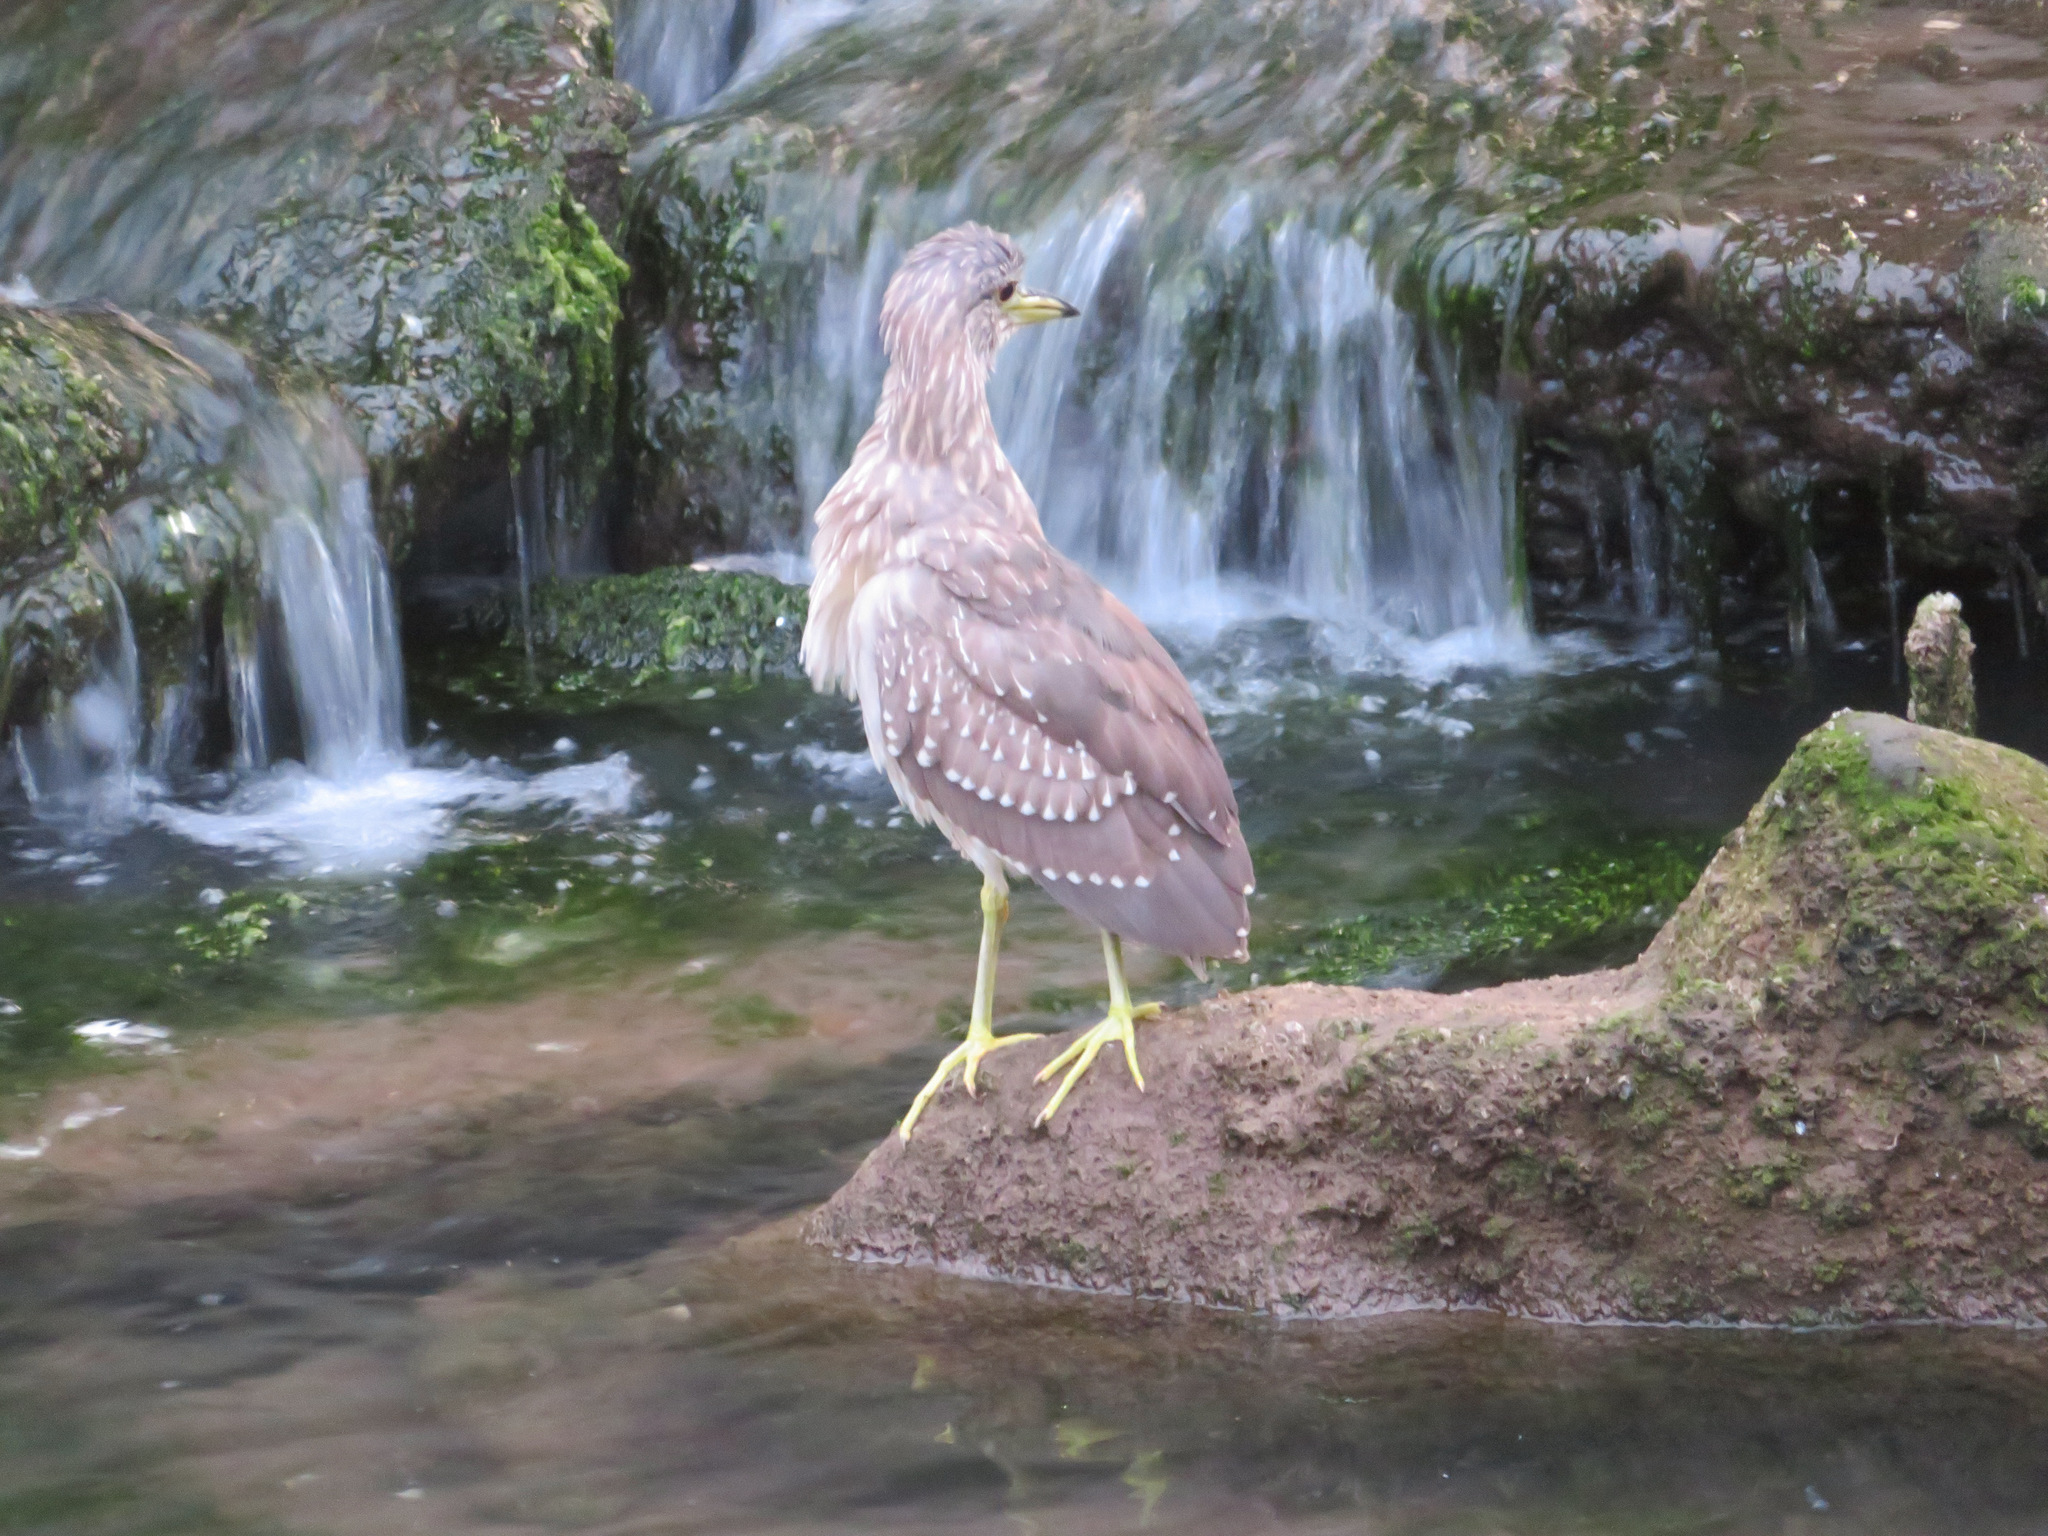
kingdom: Animalia
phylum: Chordata
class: Aves
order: Pelecaniformes
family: Ardeidae
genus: Nycticorax
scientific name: Nycticorax nycticorax
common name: Black-crowned night heron
